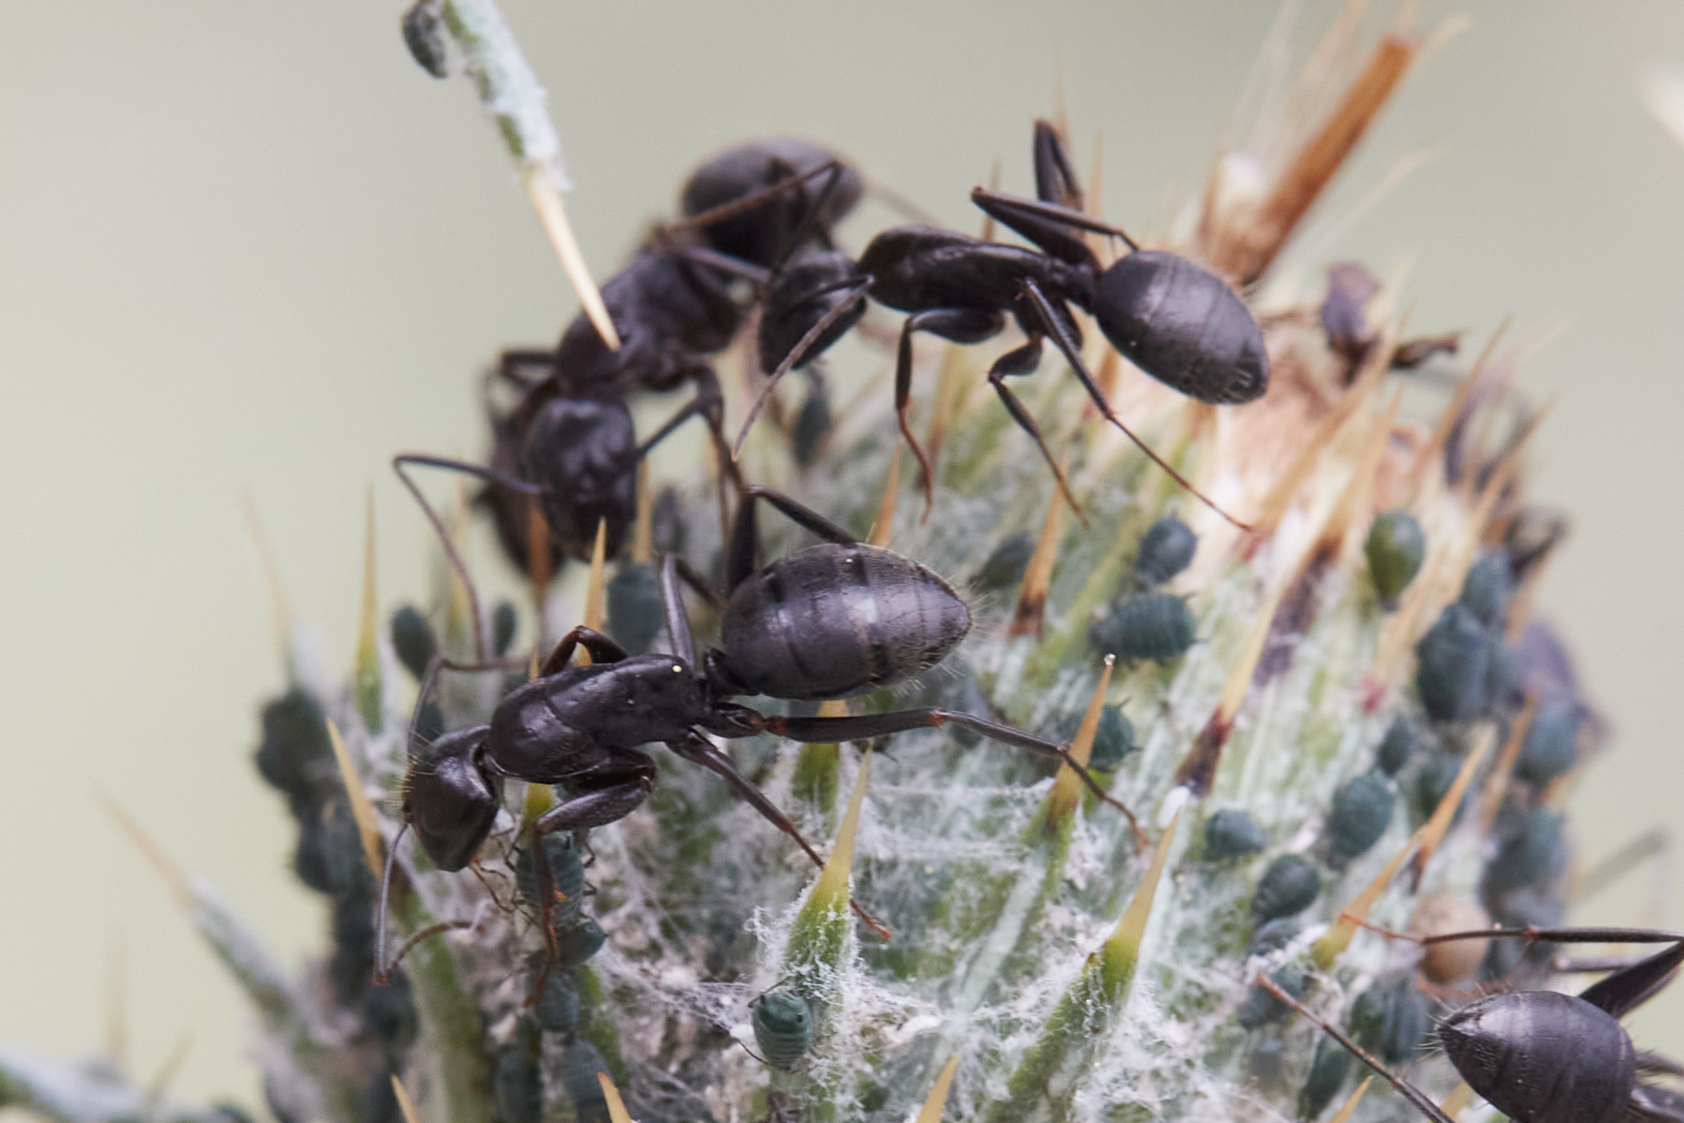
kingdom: Animalia
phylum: Arthropoda
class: Insecta
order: Hymenoptera
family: Formicidae
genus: Camponotus
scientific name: Camponotus
